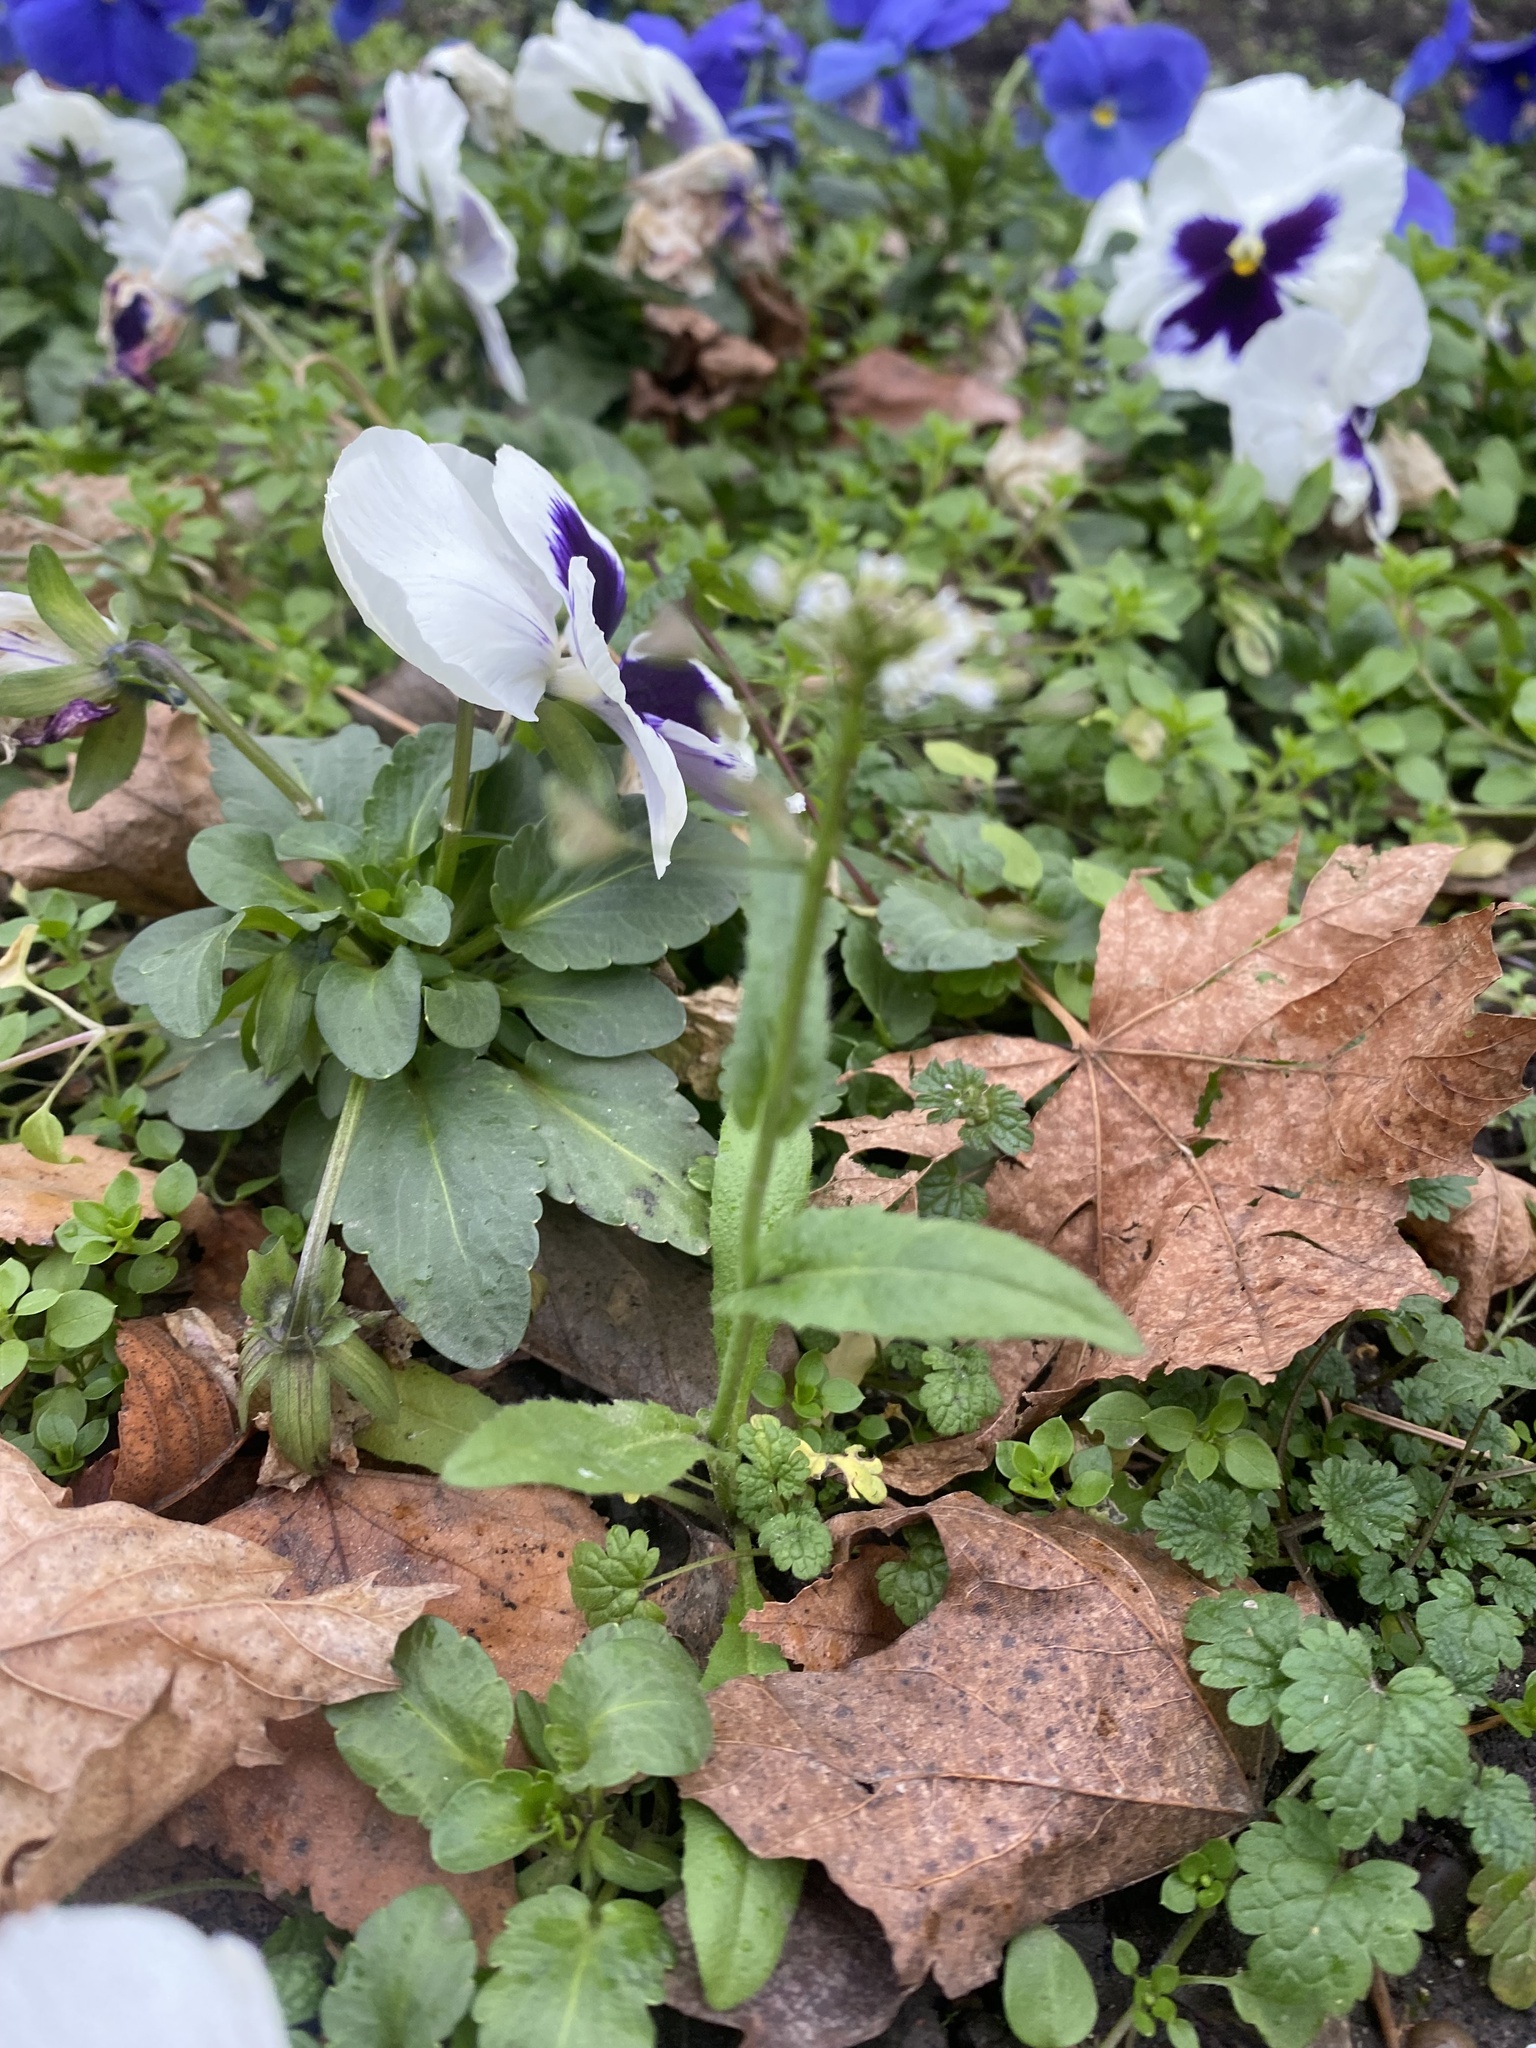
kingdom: Plantae
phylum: Tracheophyta
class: Magnoliopsida
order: Brassicales
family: Brassicaceae
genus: Capsella
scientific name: Capsella bursa-pastoris
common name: Shepherd's purse
